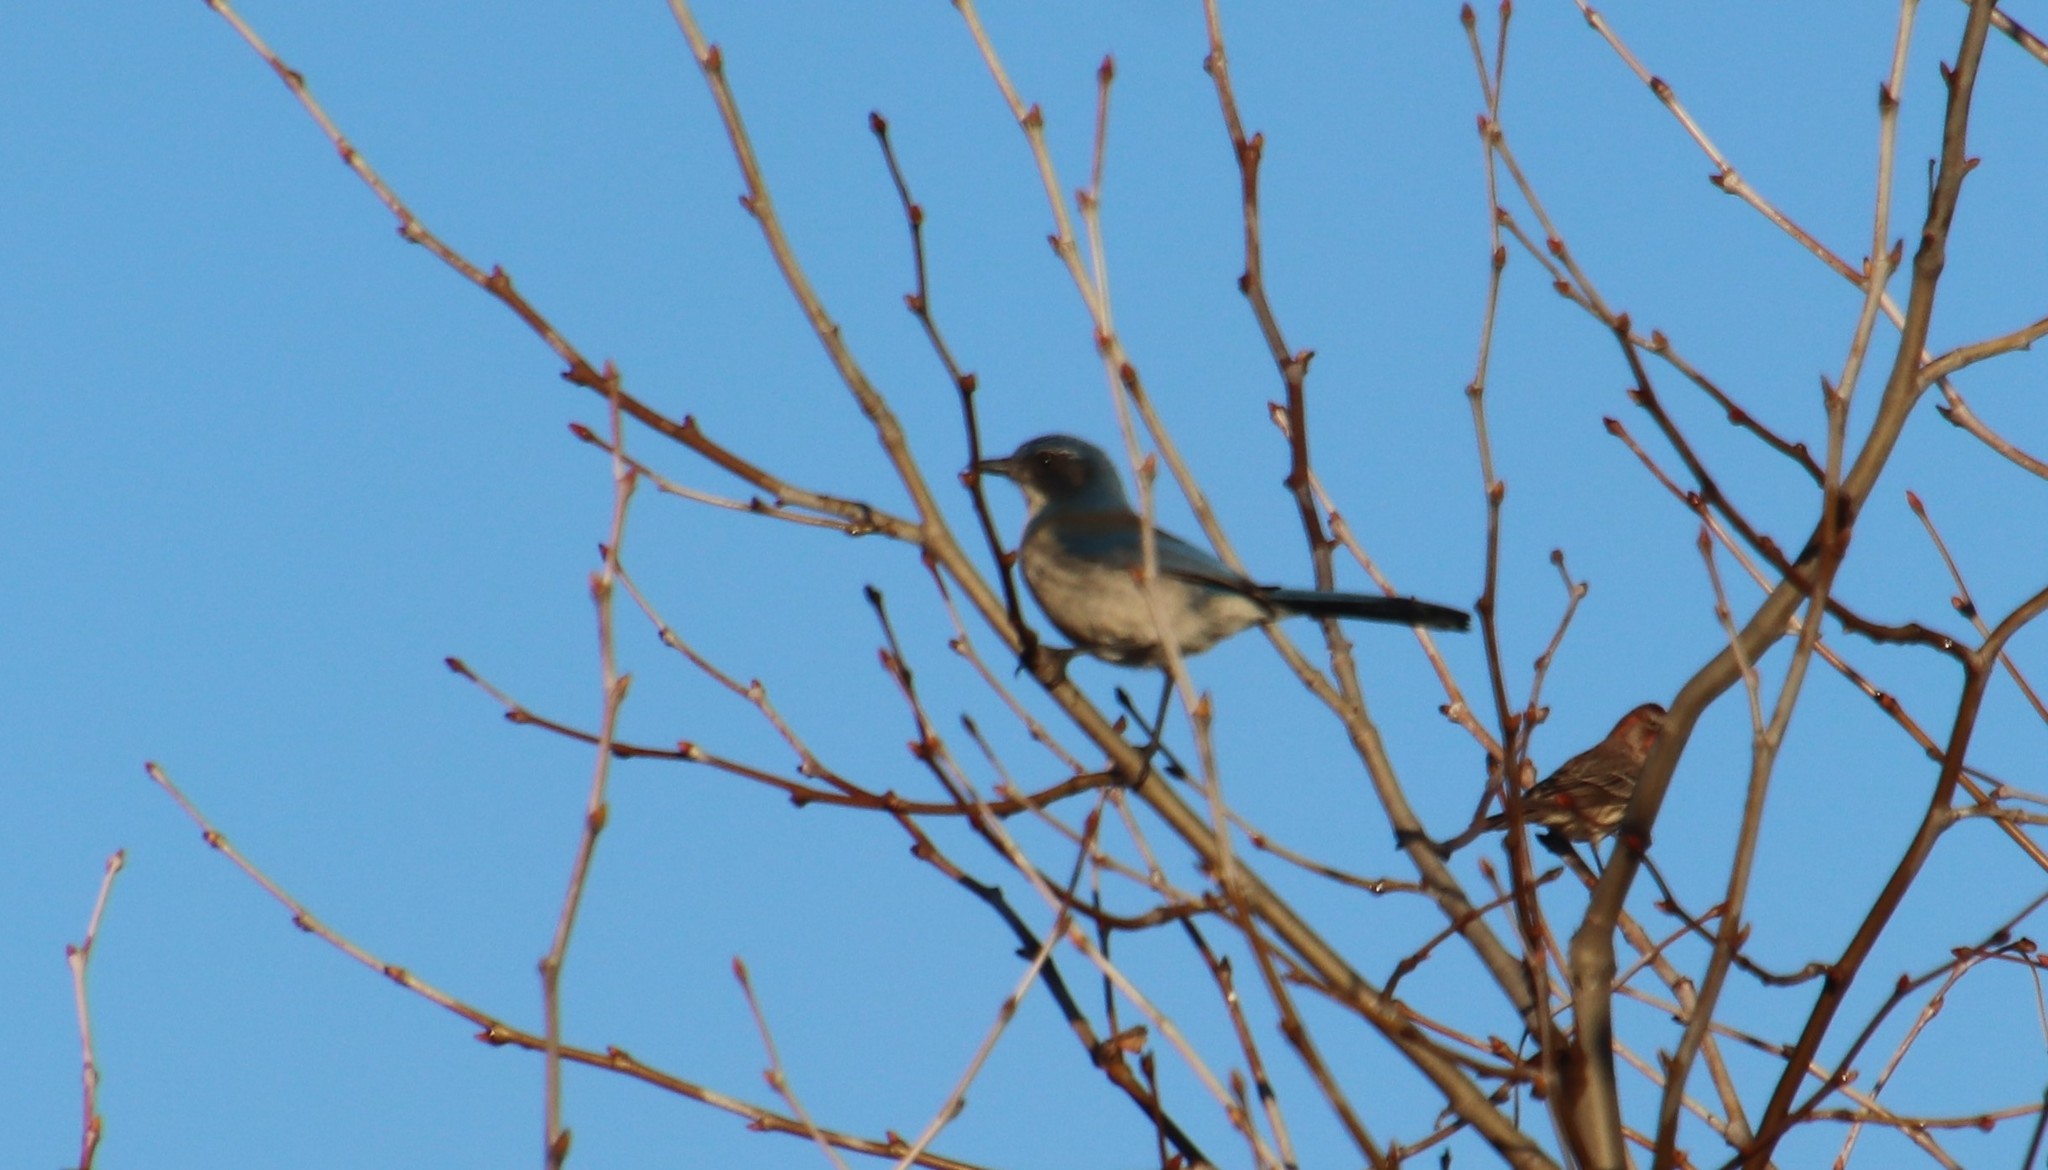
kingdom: Animalia
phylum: Chordata
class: Aves
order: Passeriformes
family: Corvidae
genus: Aphelocoma
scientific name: Aphelocoma californica
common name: California scrub-jay
